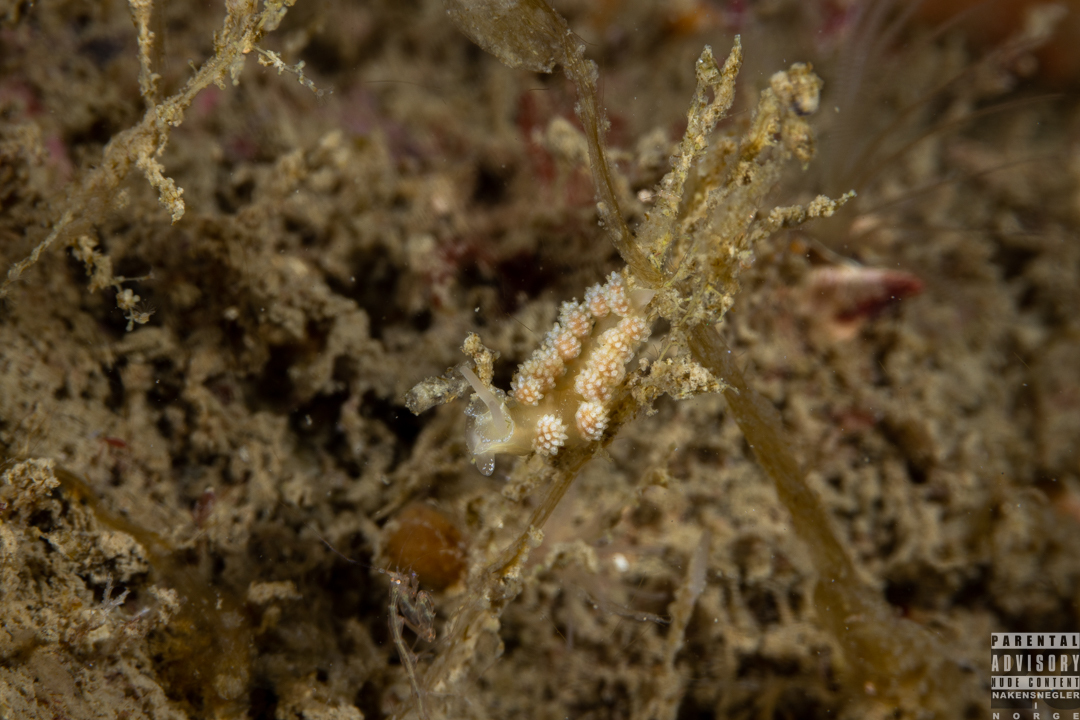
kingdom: Animalia
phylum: Mollusca
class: Gastropoda
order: Nudibranchia
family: Dotidae
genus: Doto
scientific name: Doto fragilis
